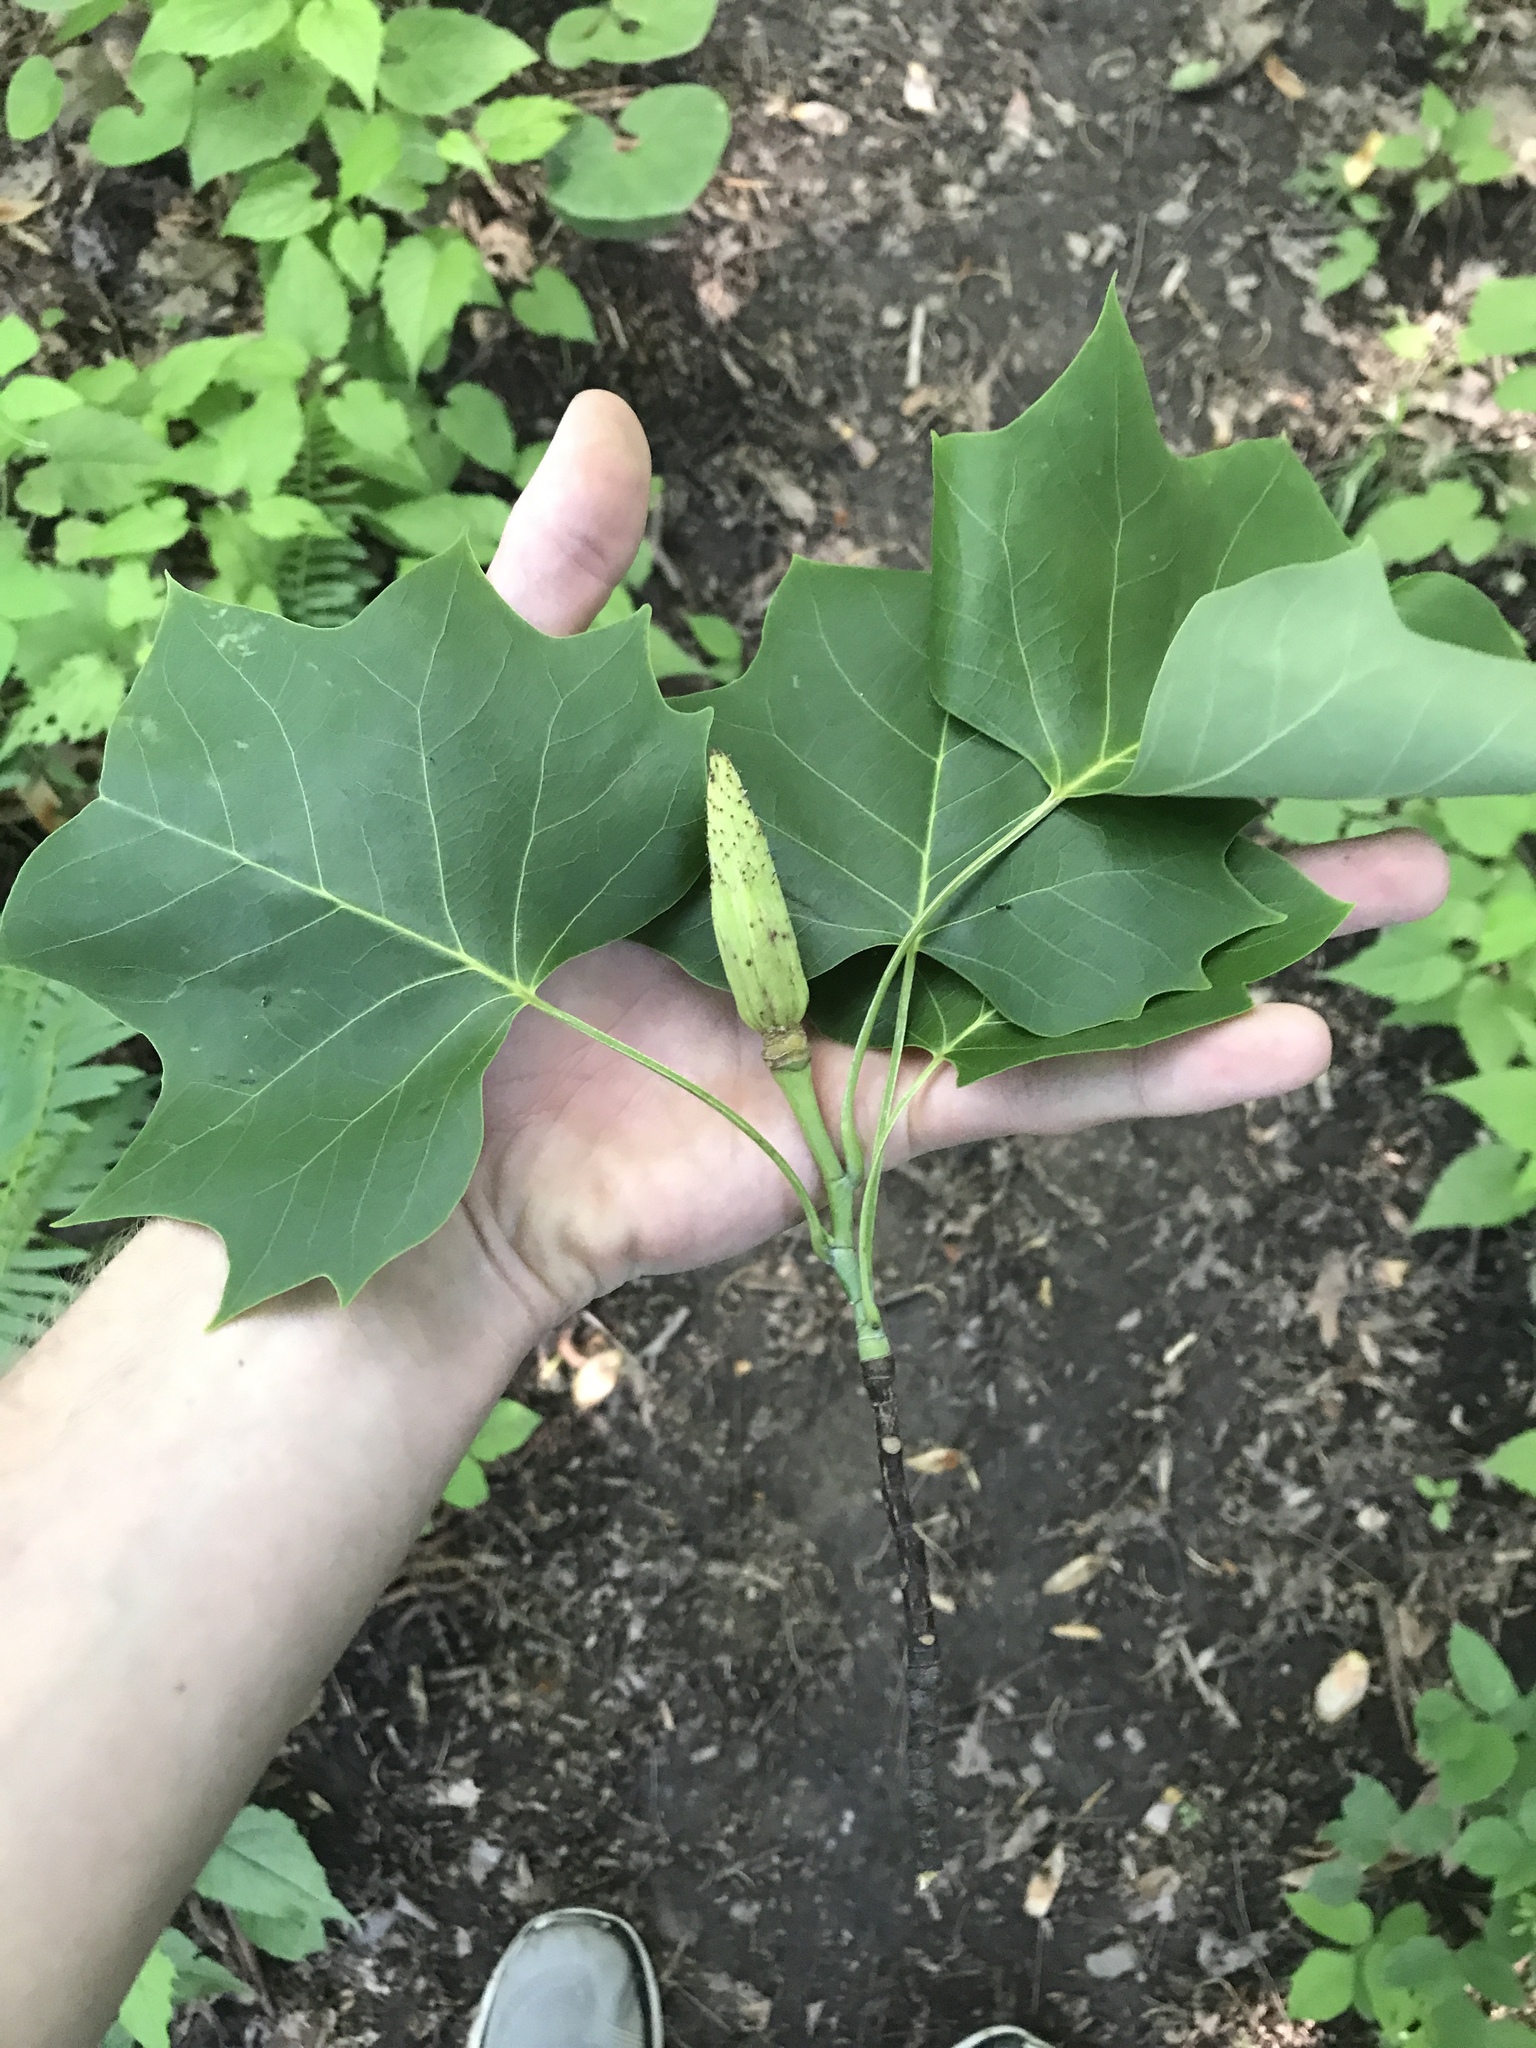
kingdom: Plantae
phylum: Tracheophyta
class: Magnoliopsida
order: Magnoliales
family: Magnoliaceae
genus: Liriodendron
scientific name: Liriodendron tulipifera
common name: Tulip tree
